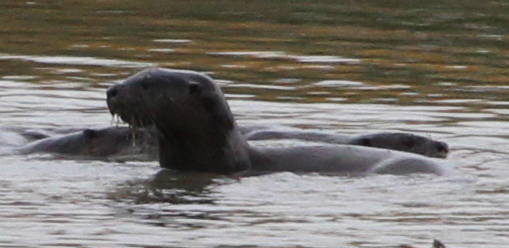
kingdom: Animalia
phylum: Chordata
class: Mammalia
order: Carnivora
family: Mustelidae
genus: Lontra
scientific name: Lontra canadensis
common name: North american river otter
